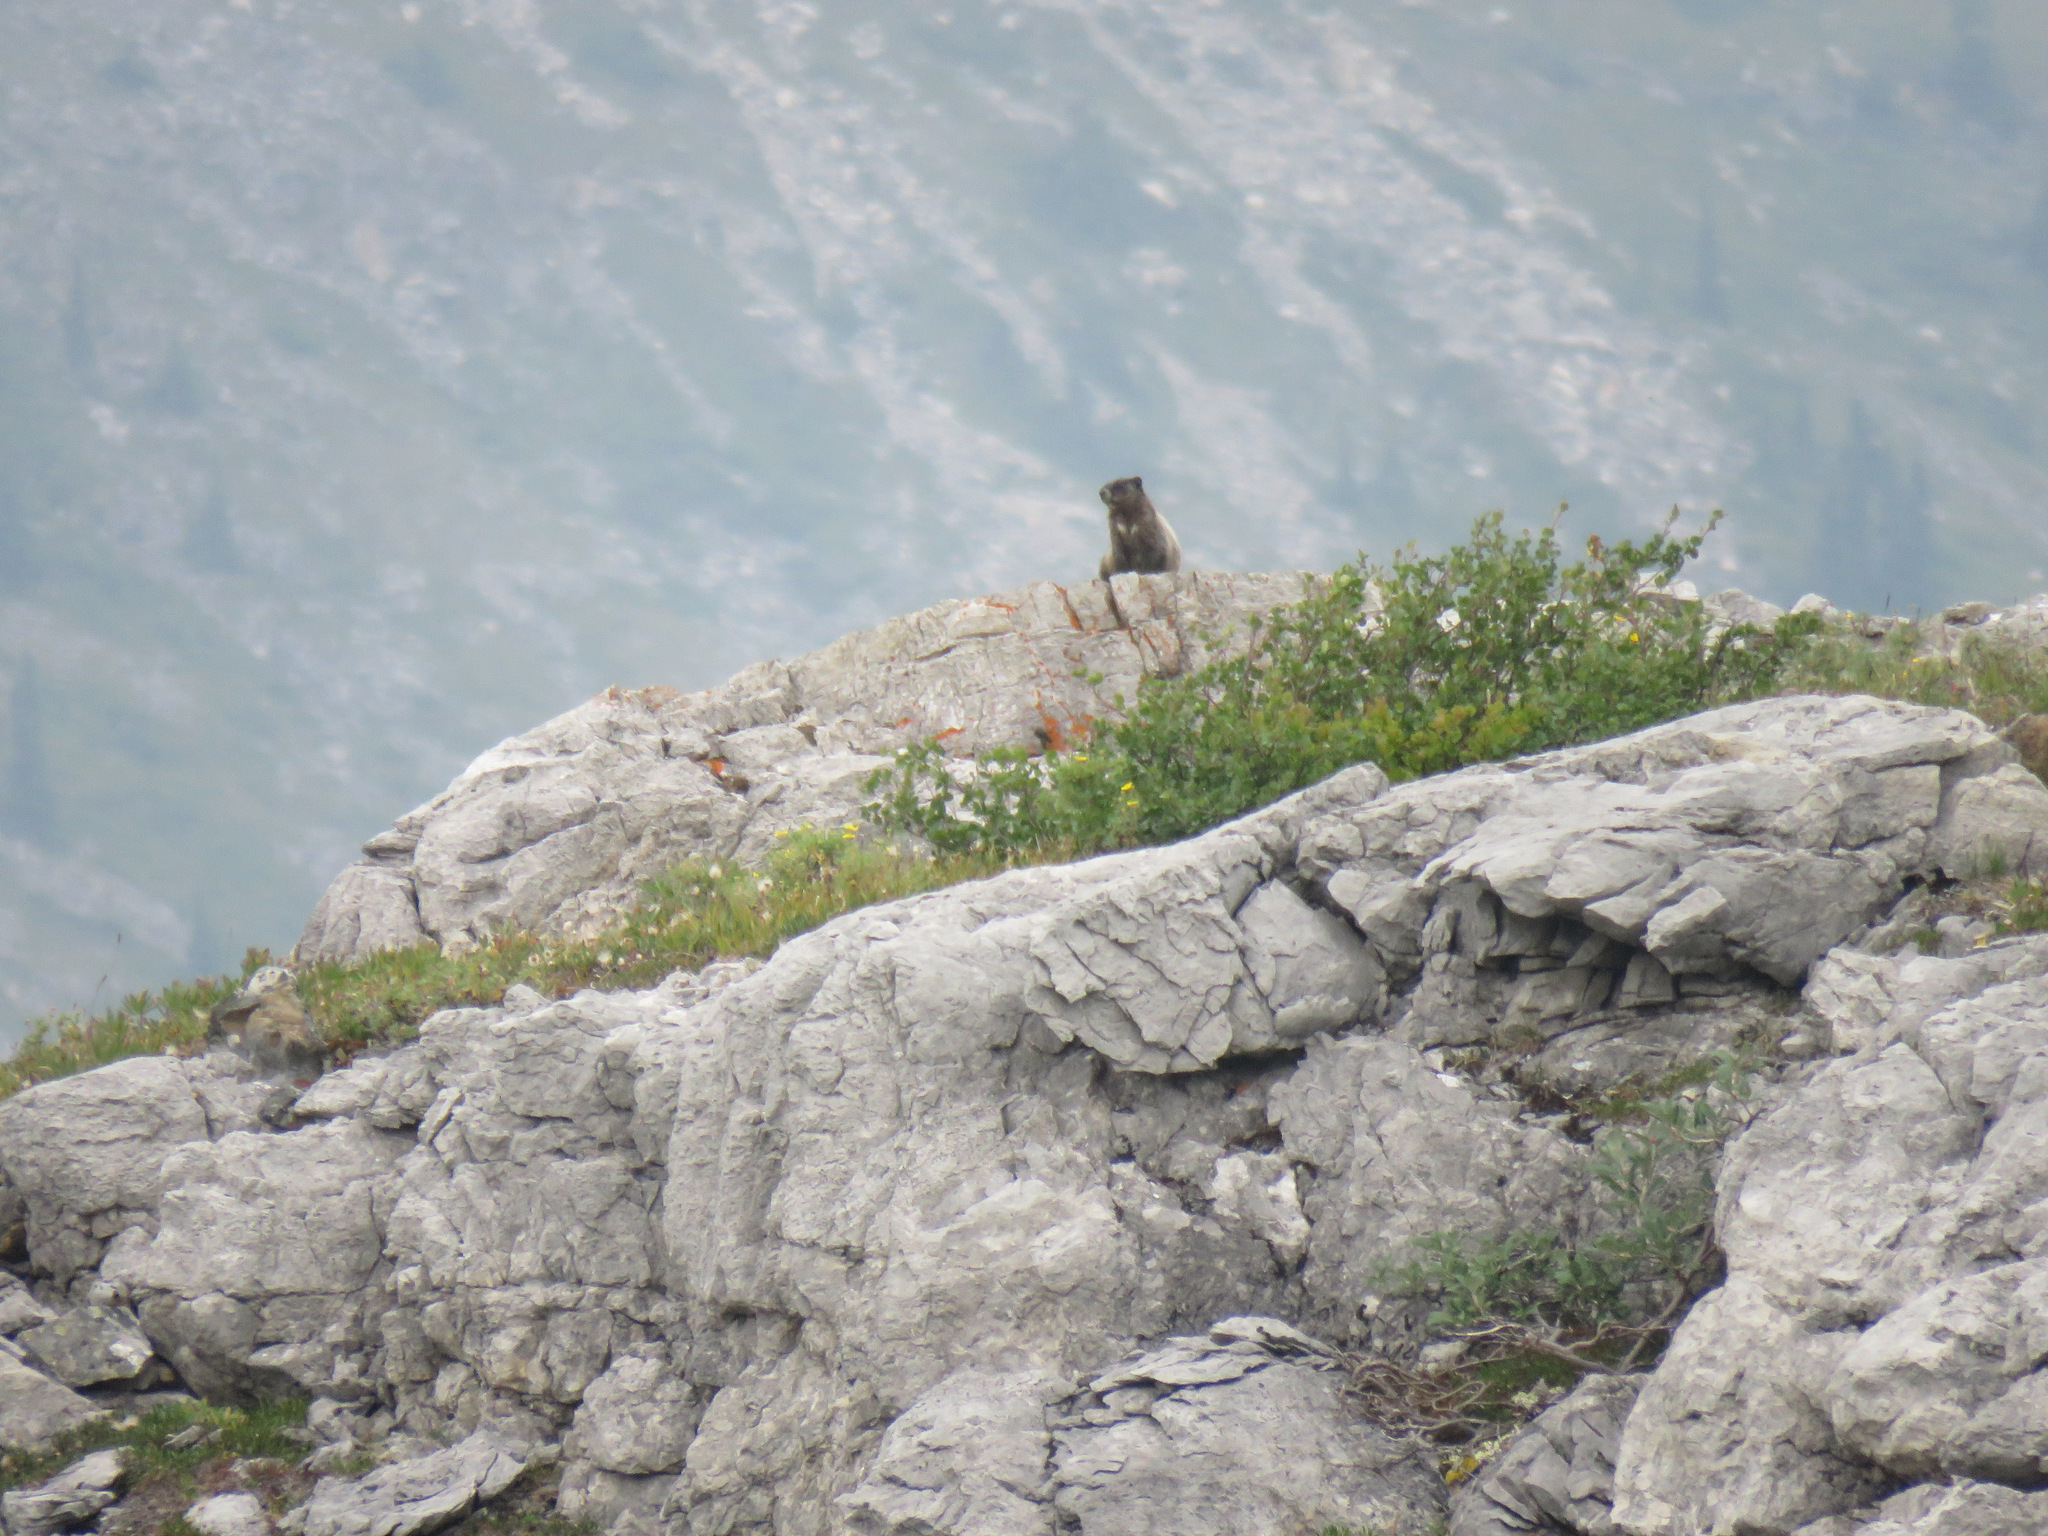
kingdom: Animalia
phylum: Chordata
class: Mammalia
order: Rodentia
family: Sciuridae
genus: Marmota
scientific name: Marmota caligata
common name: Hoary marmot
